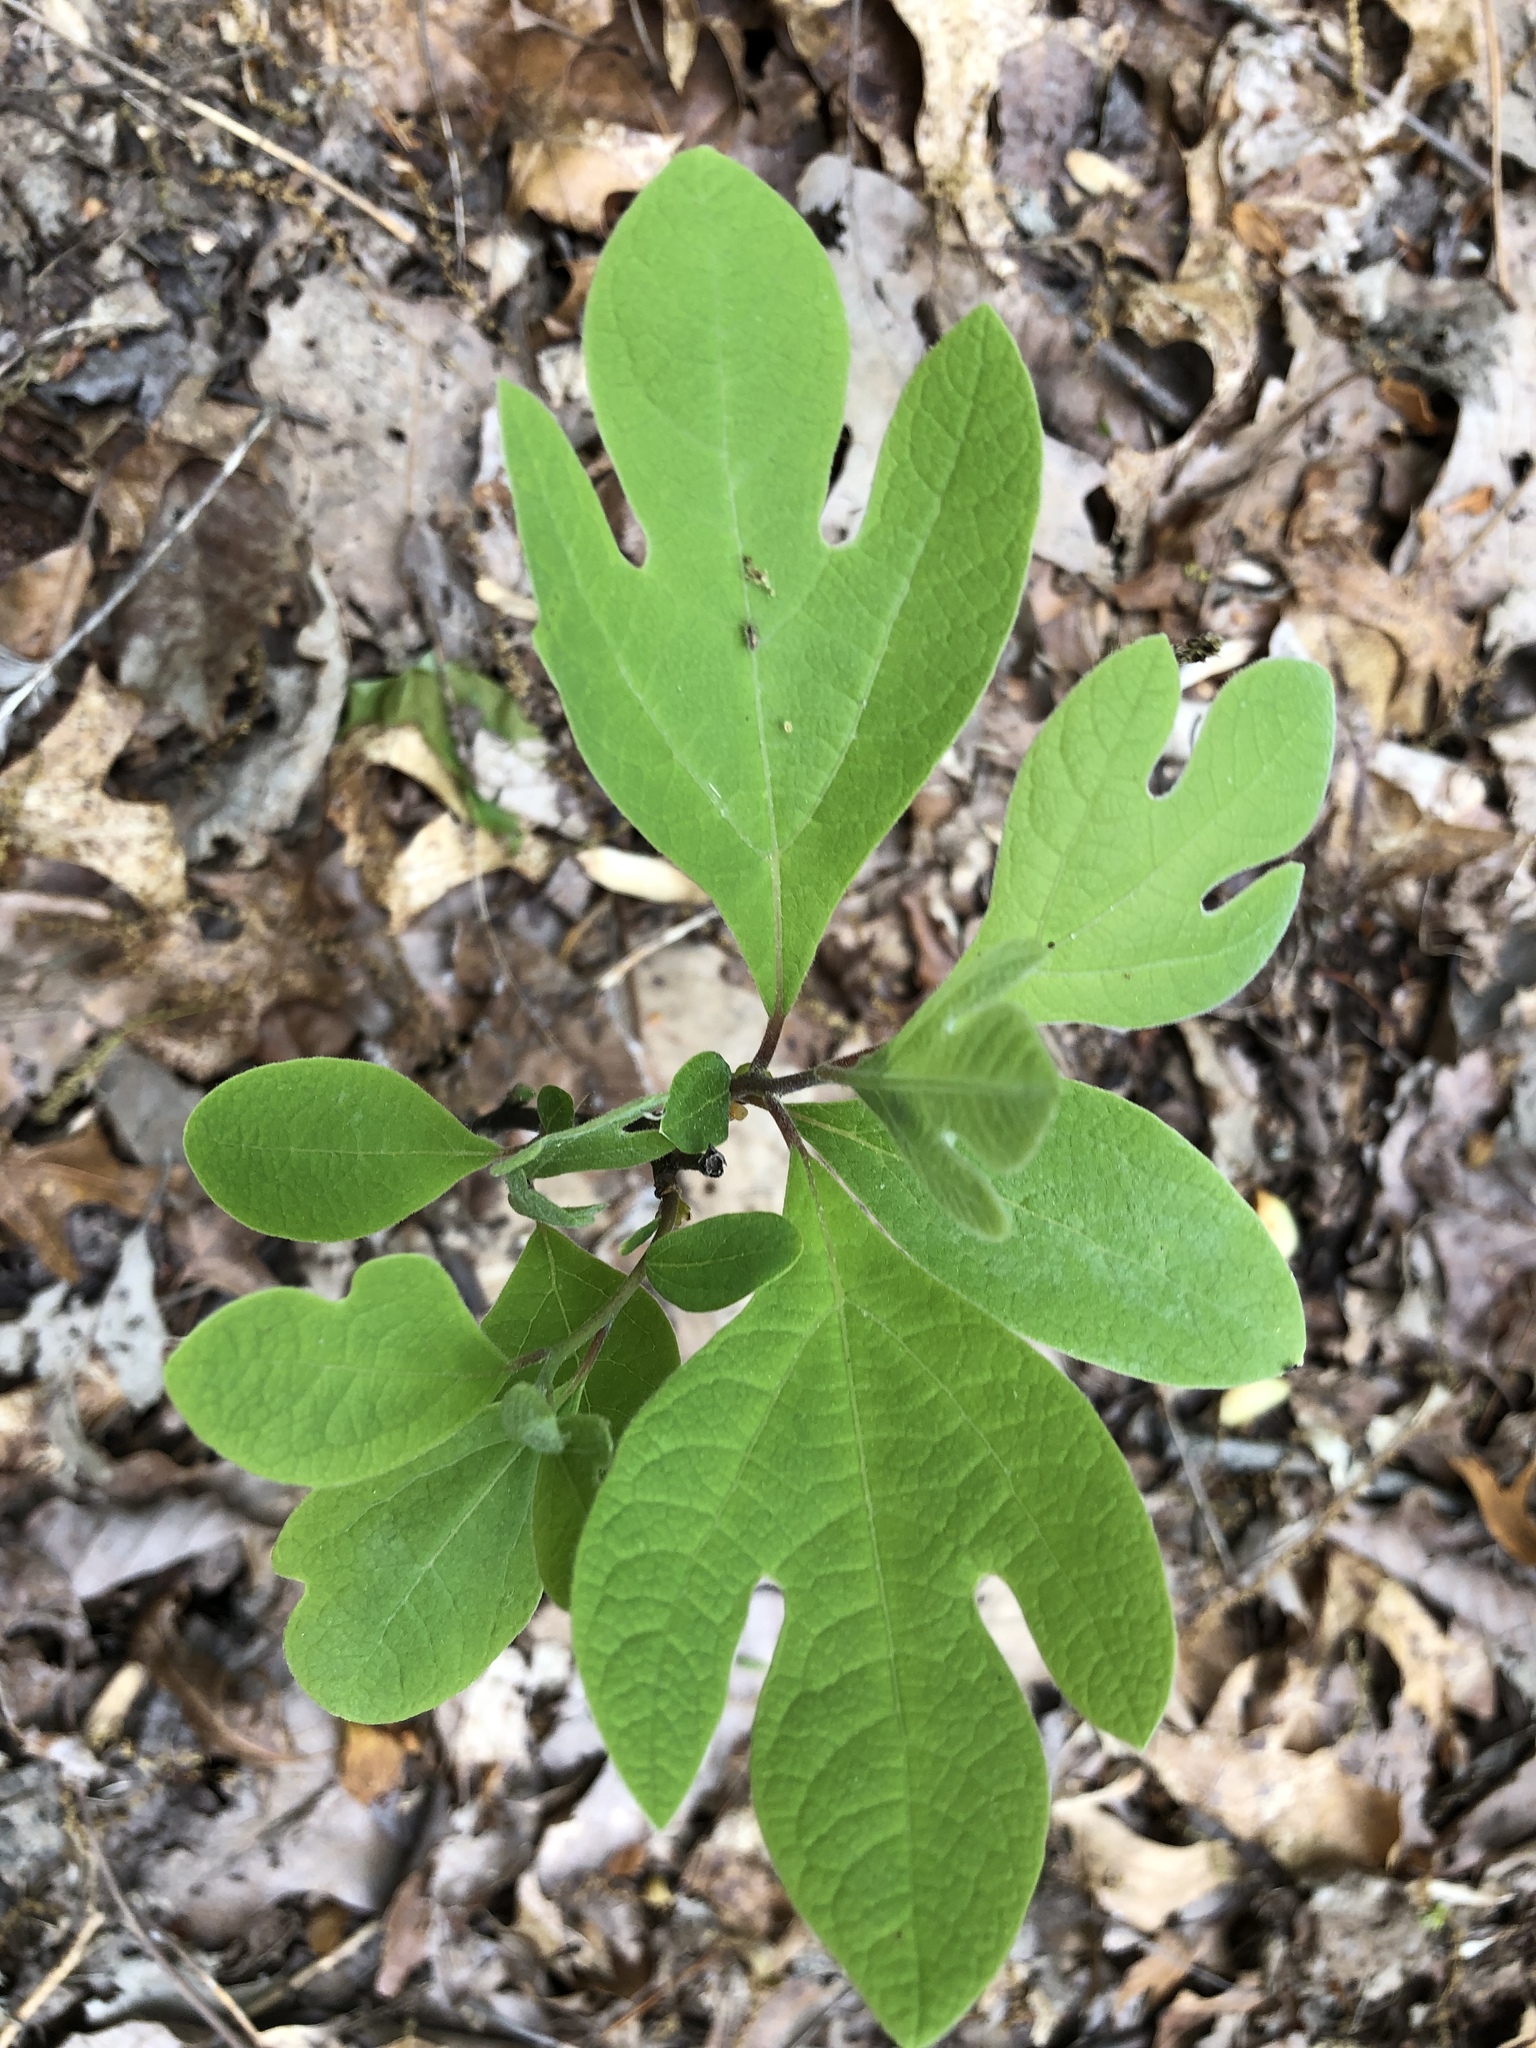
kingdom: Plantae
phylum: Tracheophyta
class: Magnoliopsida
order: Laurales
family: Lauraceae
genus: Sassafras
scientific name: Sassafras albidum
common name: Sassafras
